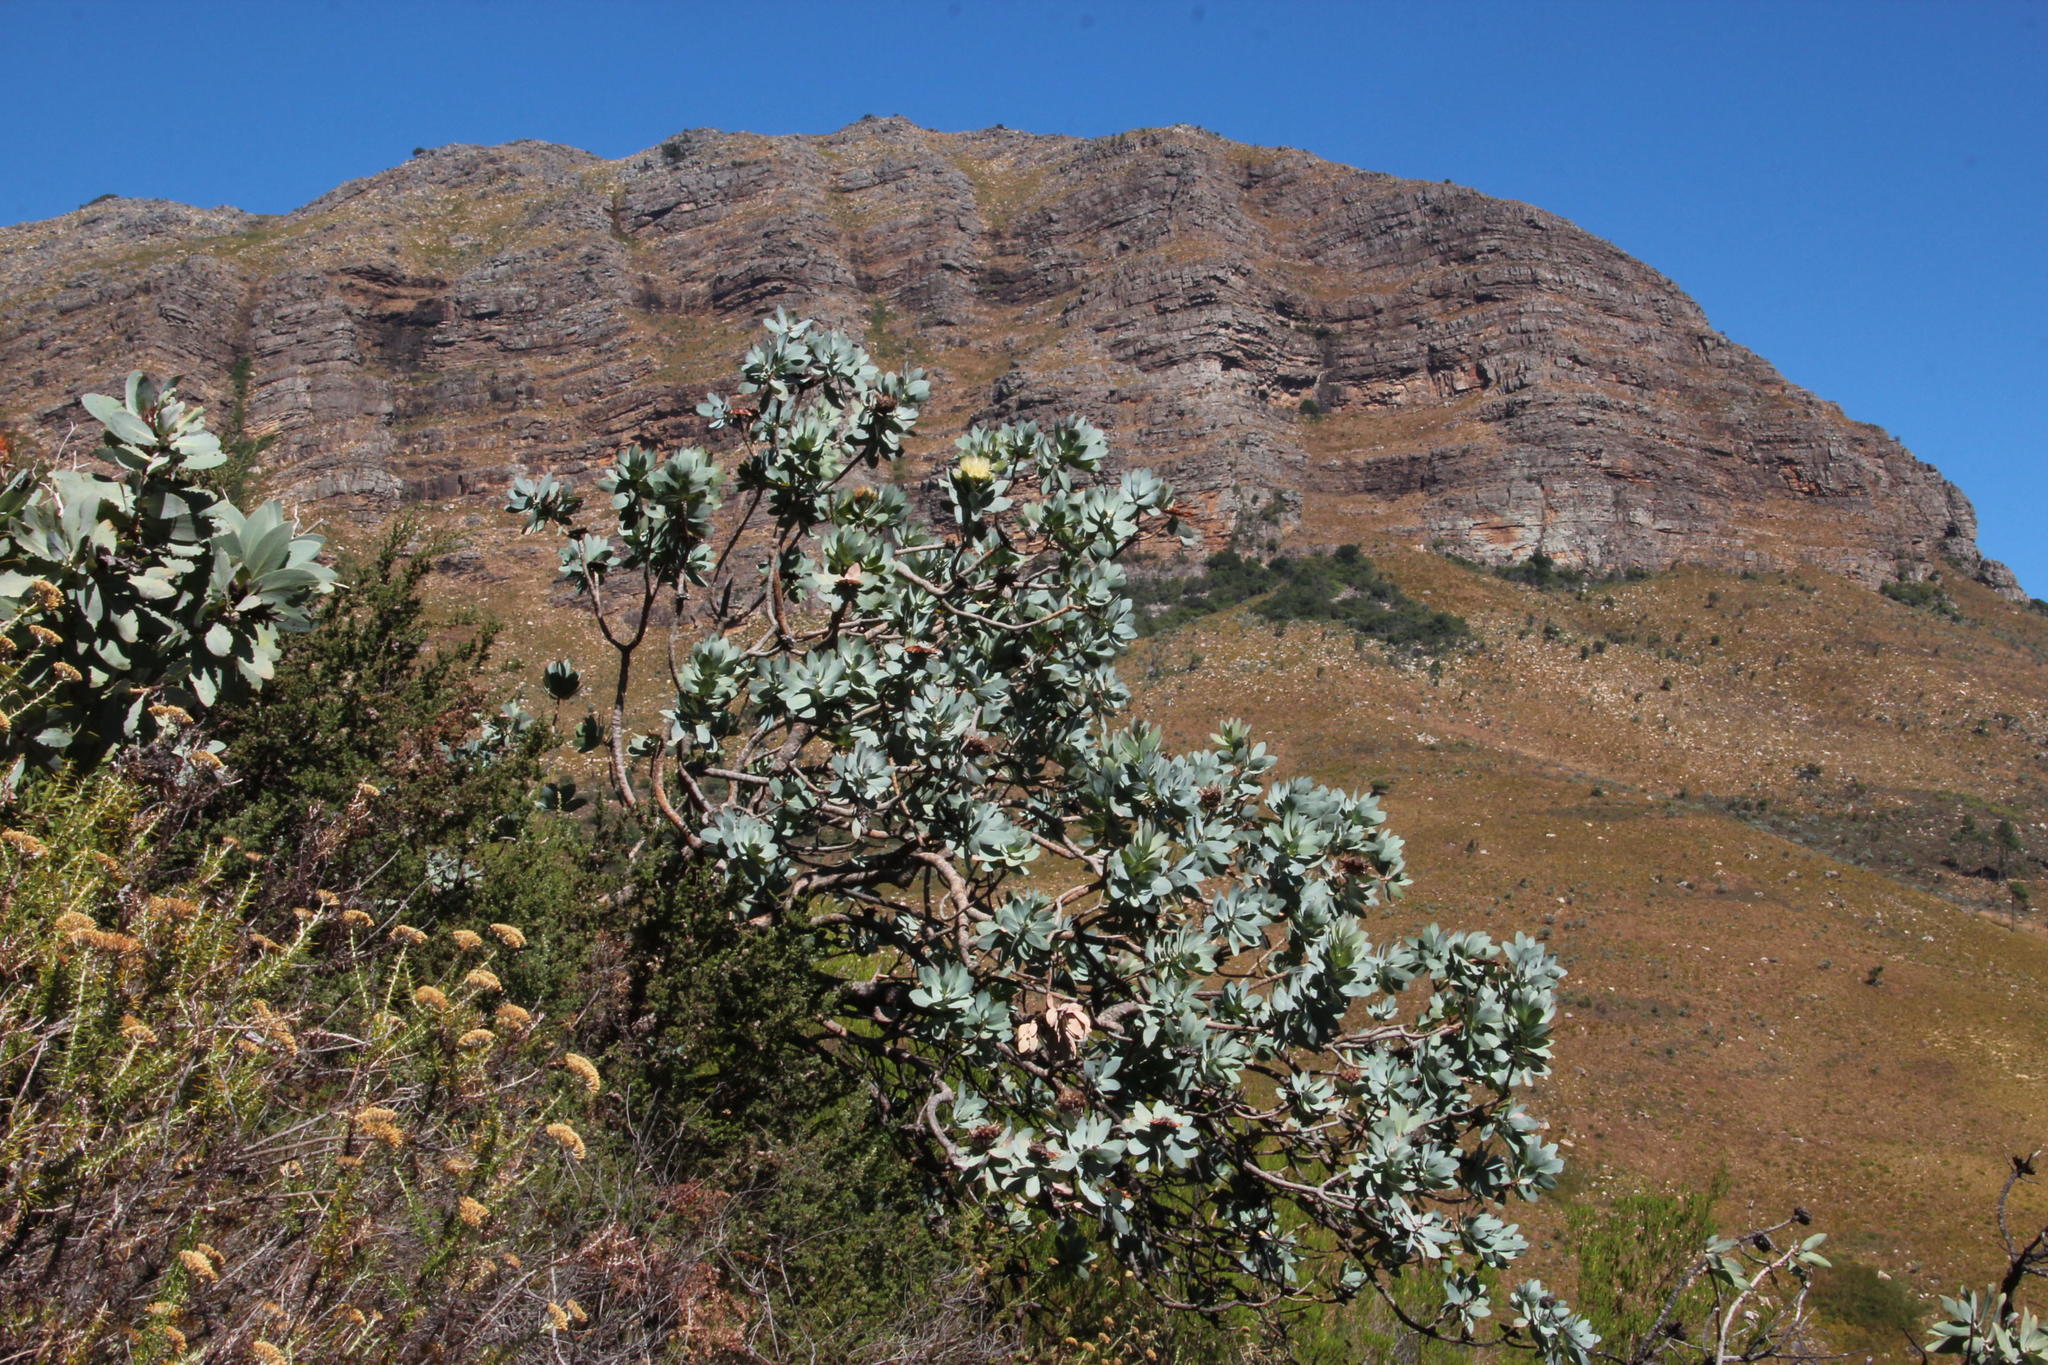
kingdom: Plantae
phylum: Tracheophyta
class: Magnoliopsida
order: Proteales
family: Proteaceae
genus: Protea
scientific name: Protea nitida
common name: Tree protea
